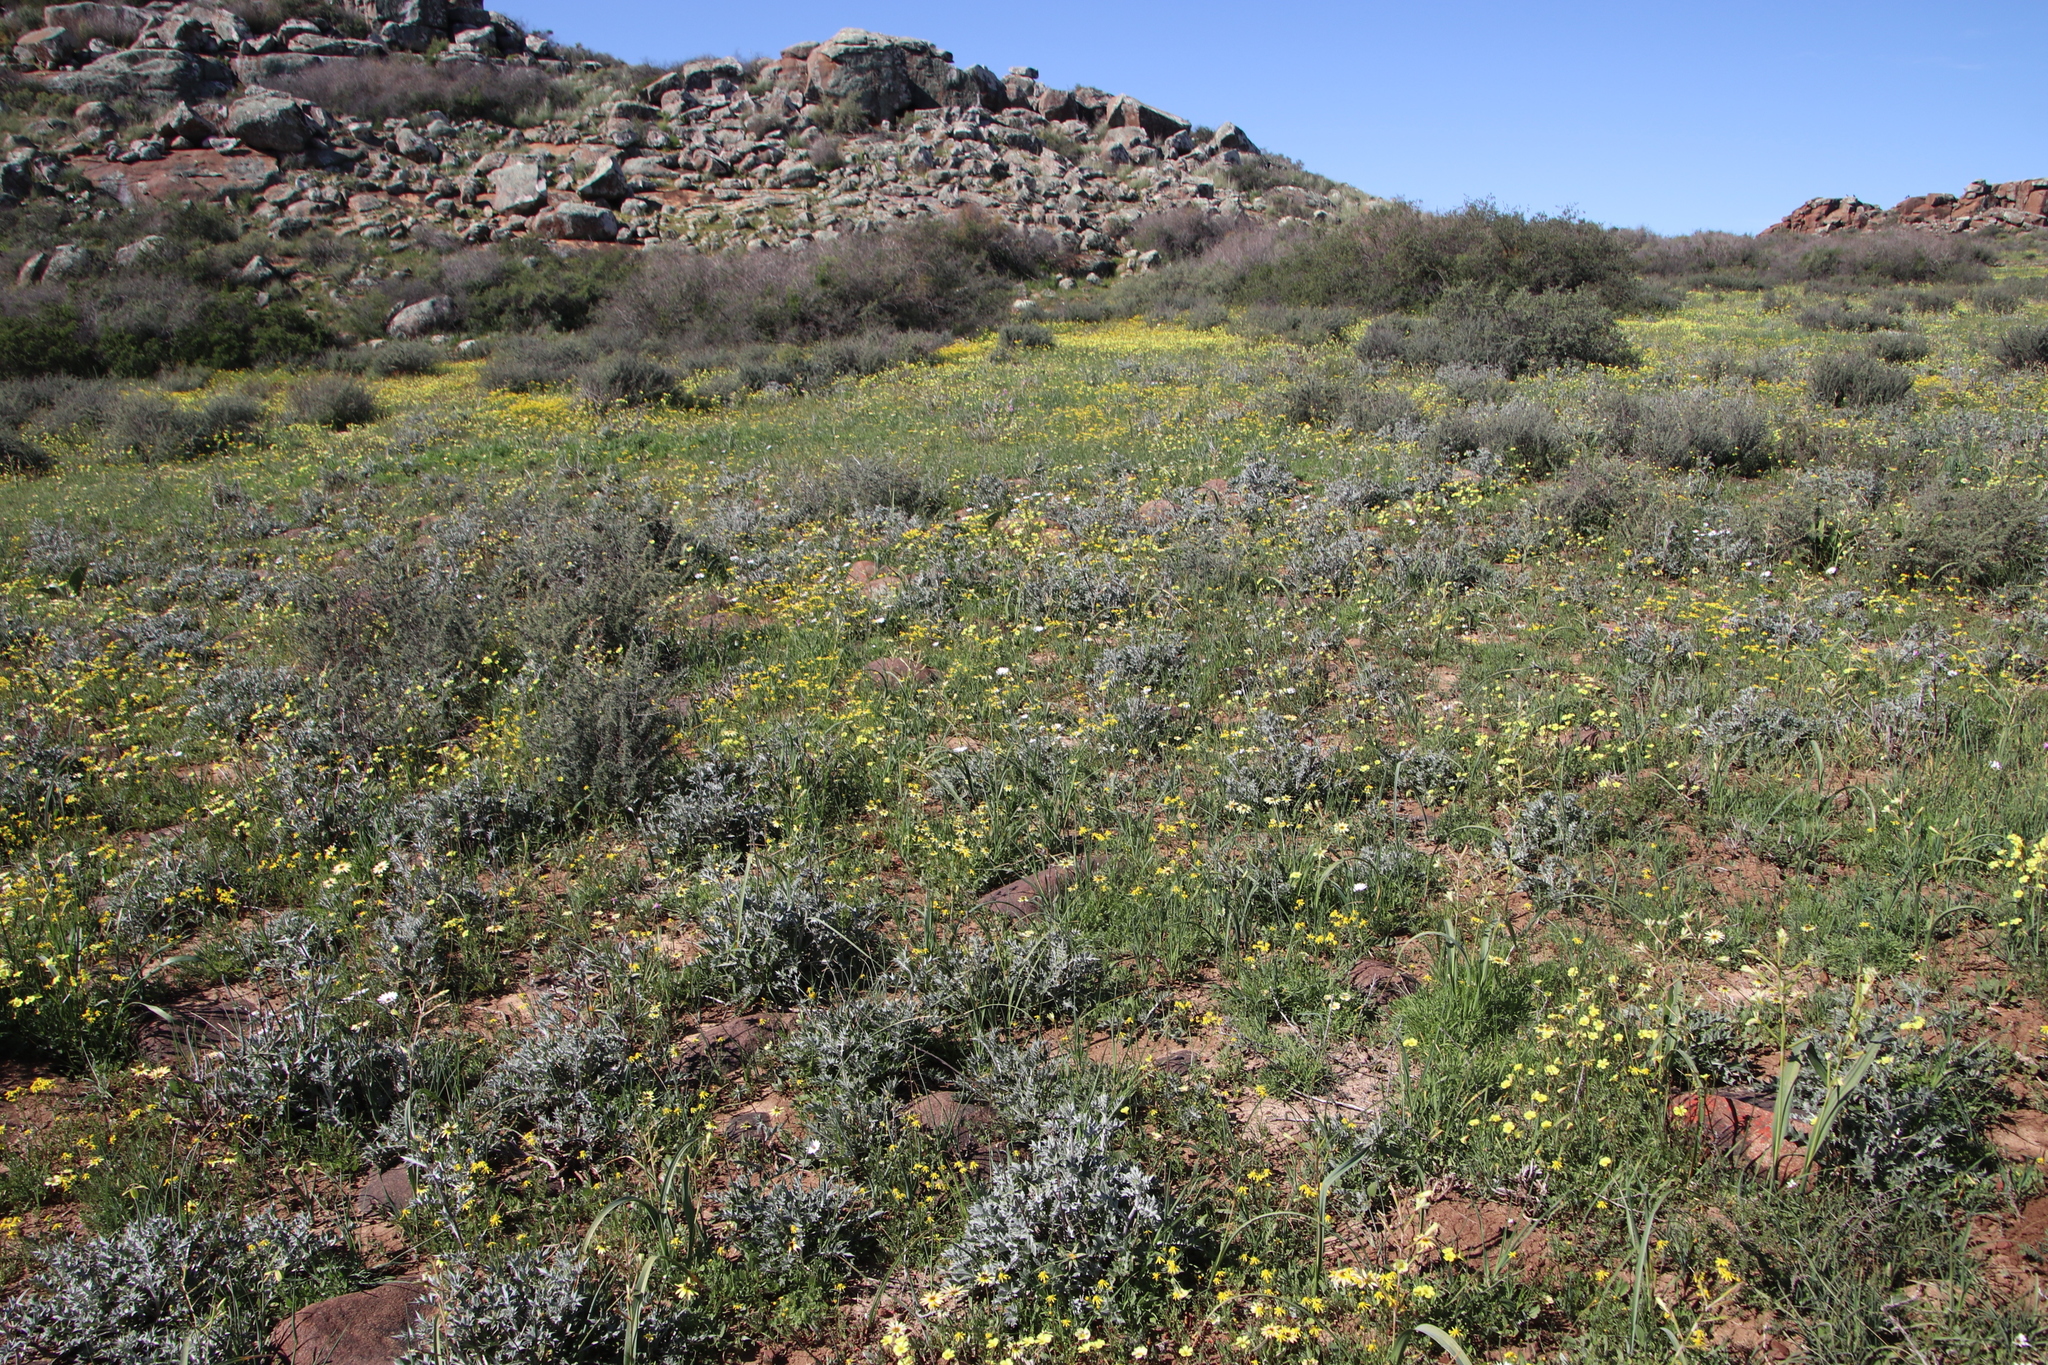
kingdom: Plantae
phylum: Tracheophyta
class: Magnoliopsida
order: Asterales
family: Asteraceae
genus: Berkheya
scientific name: Berkheya pinnatifida
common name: Lobed african thistle
